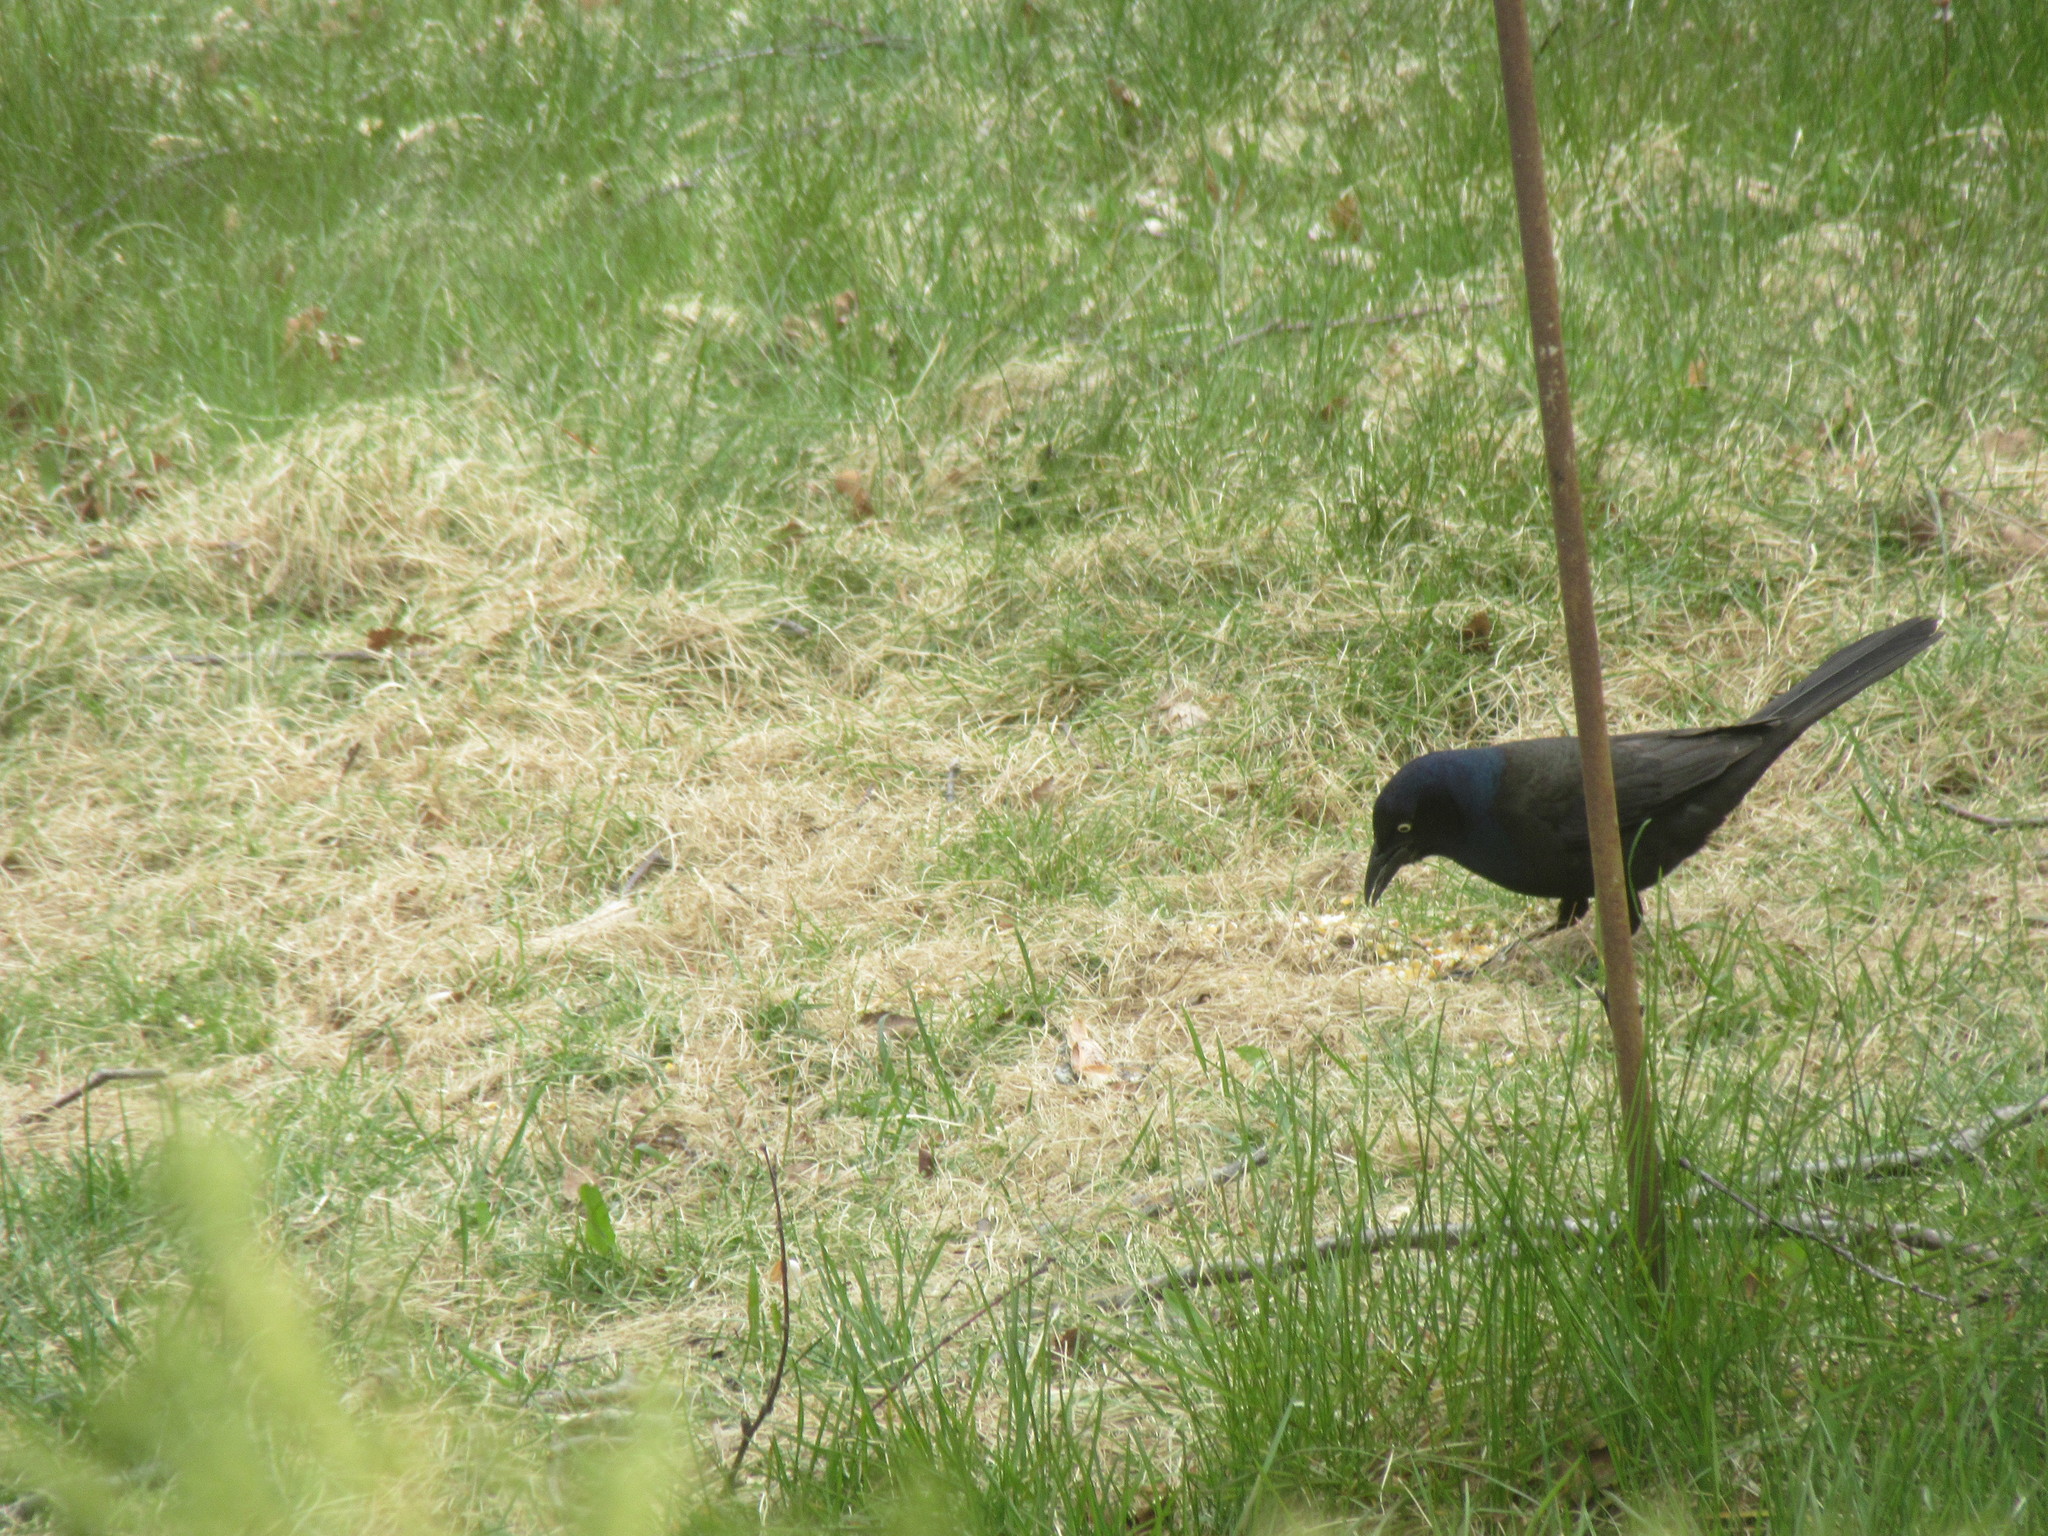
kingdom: Animalia
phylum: Chordata
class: Aves
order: Passeriformes
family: Icteridae
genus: Quiscalus
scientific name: Quiscalus quiscula
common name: Common grackle
